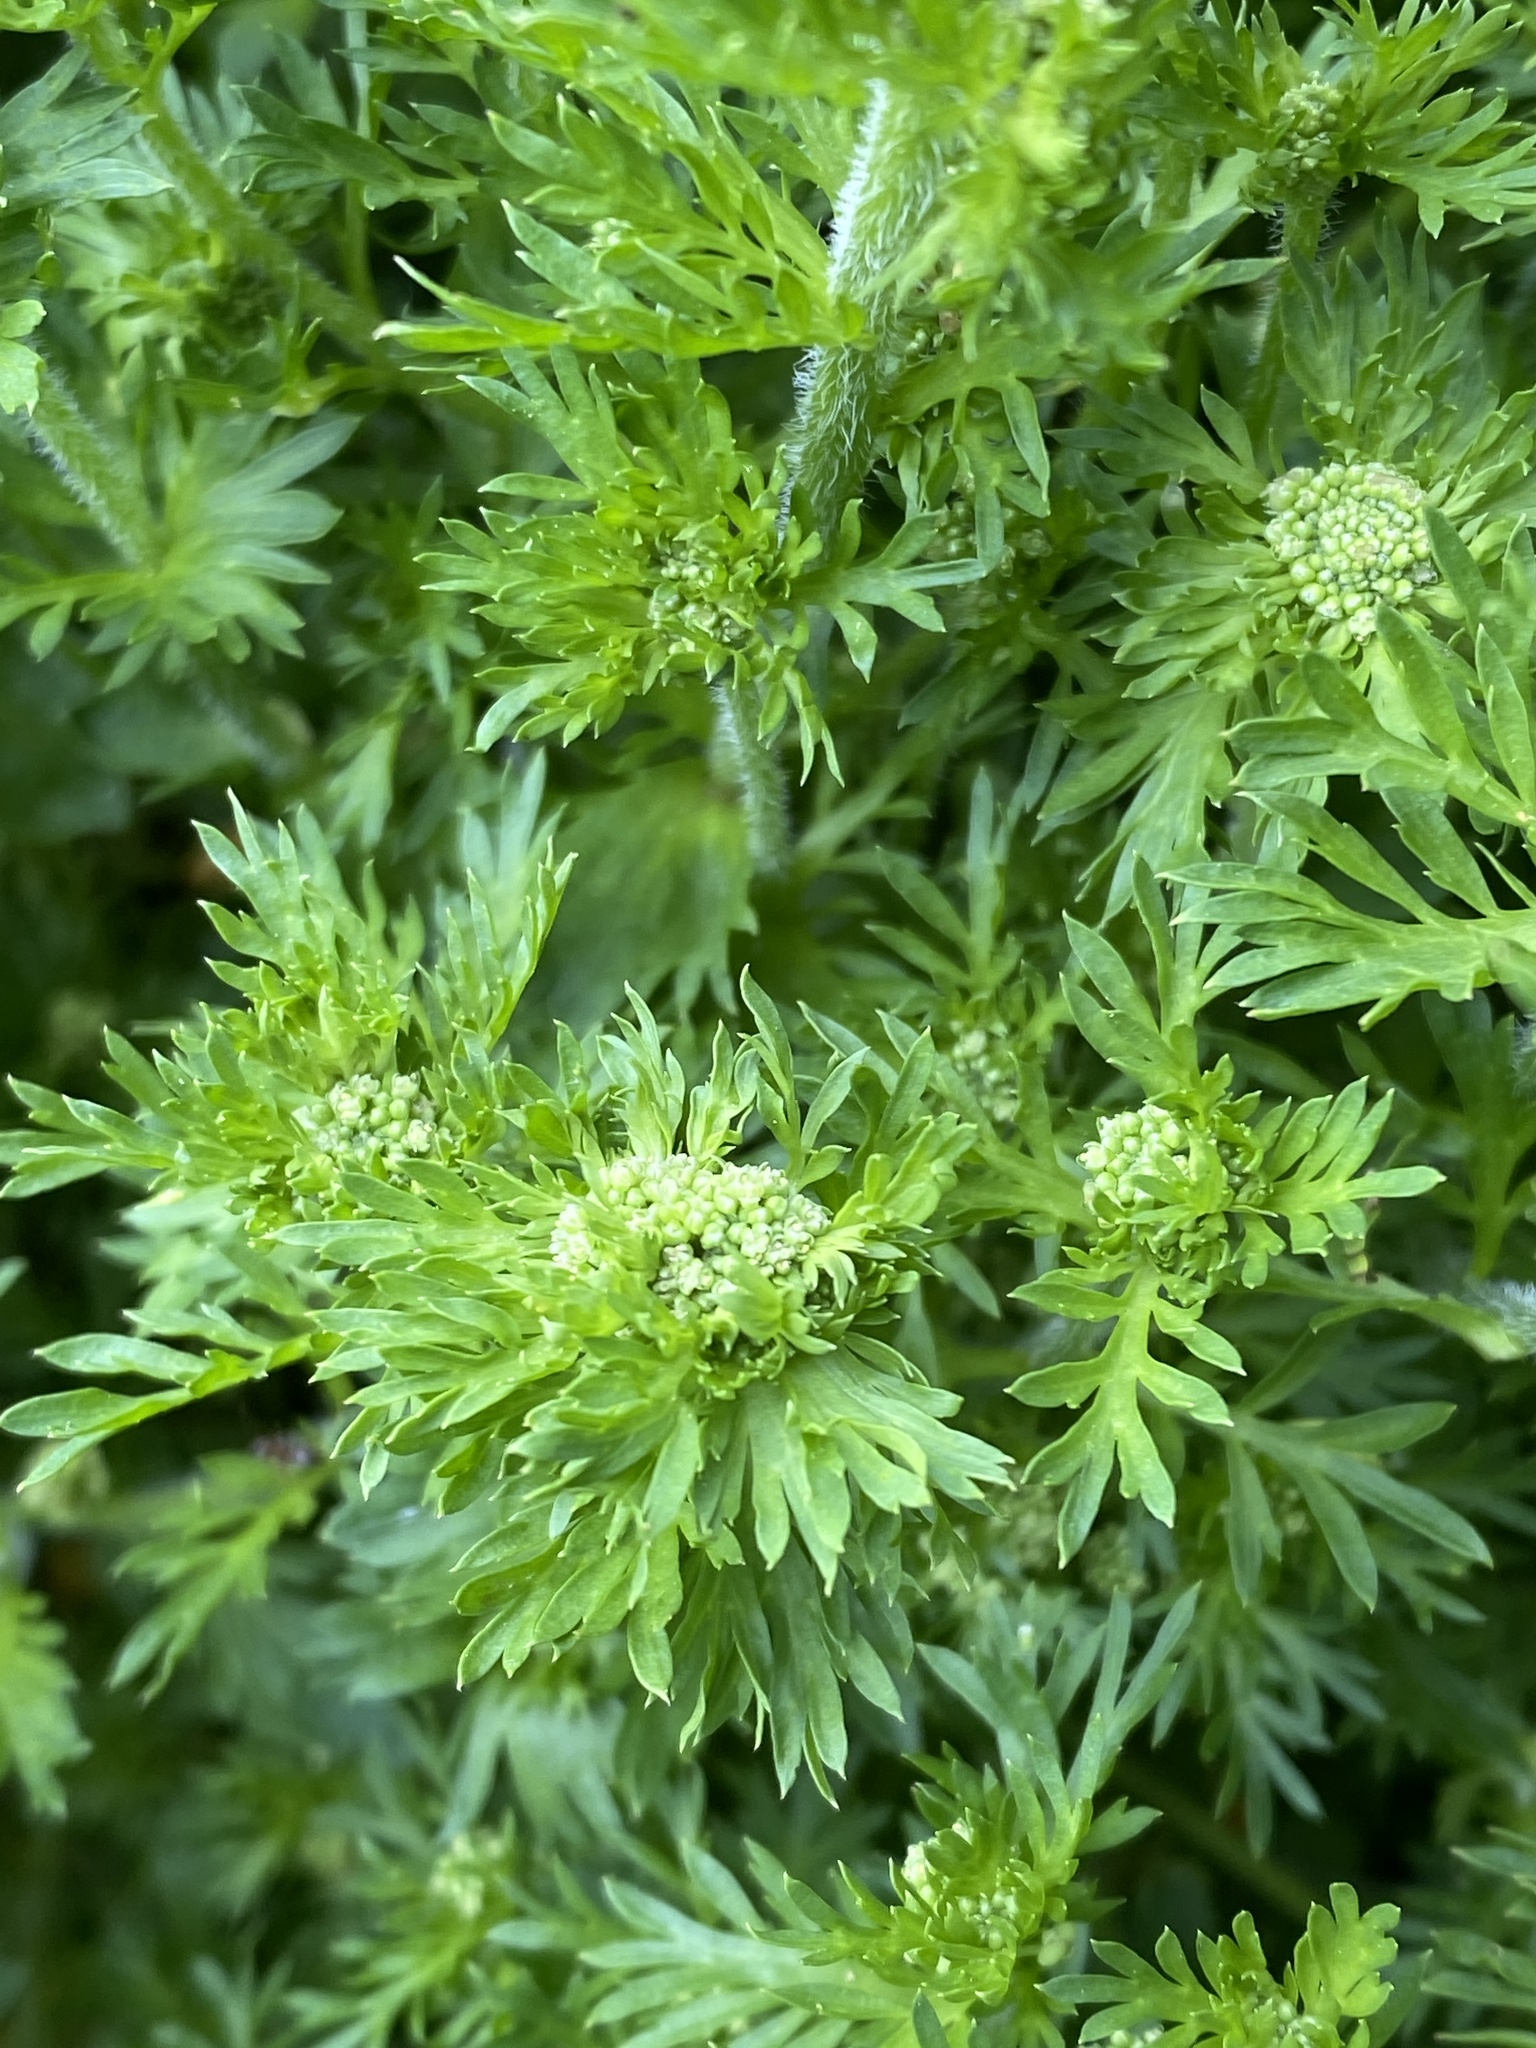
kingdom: Plantae
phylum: Tracheophyta
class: Magnoliopsida
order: Brassicales
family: Brassicaceae
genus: Lepidium
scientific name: Lepidium didymum
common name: Lesser swinecress
